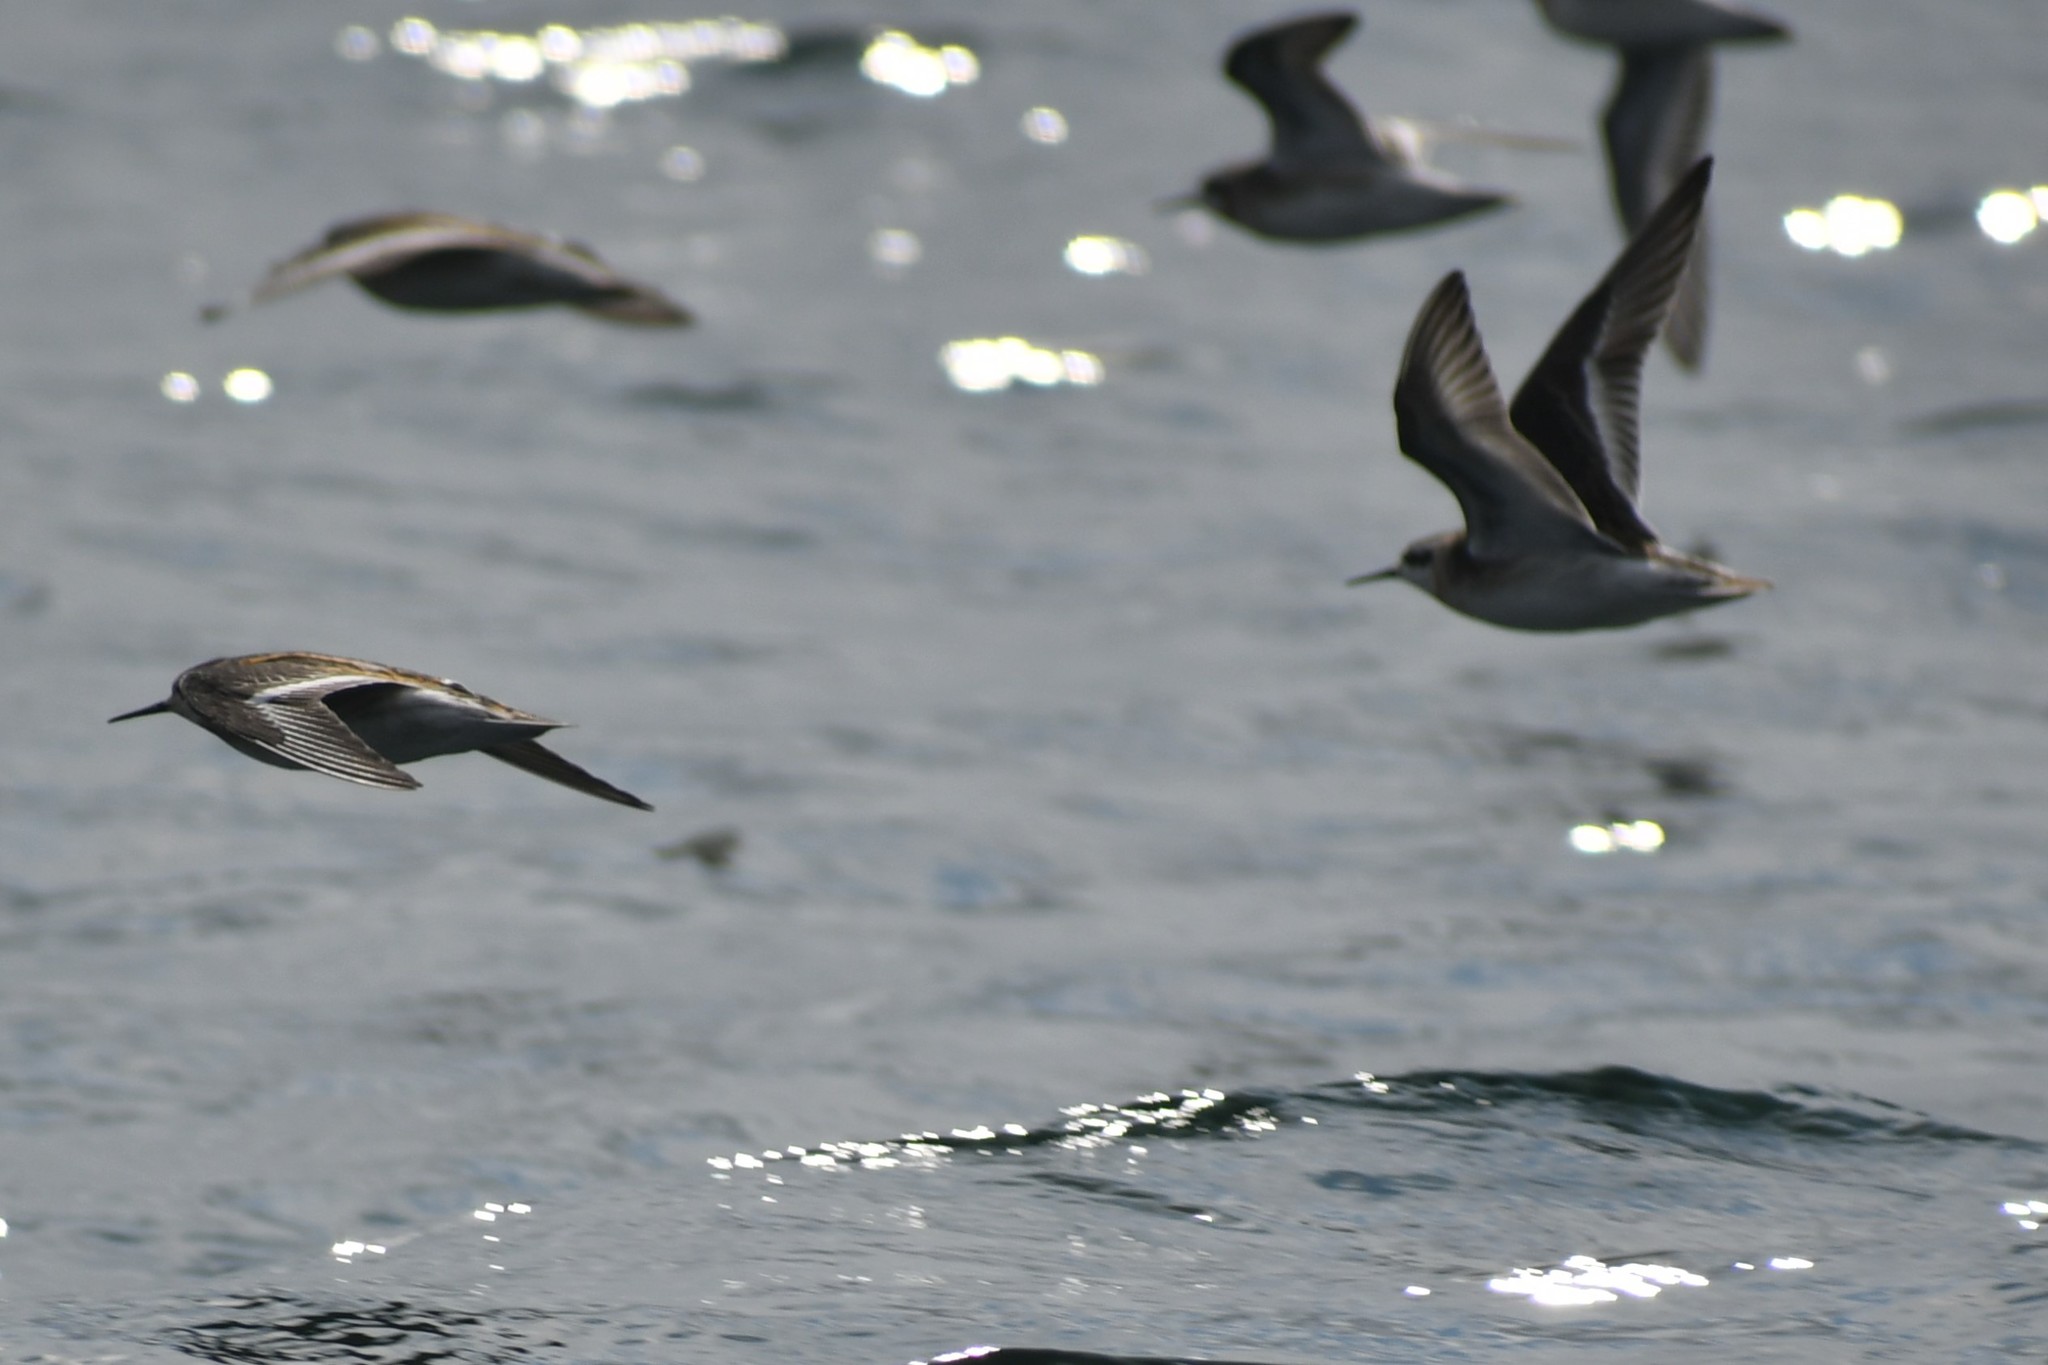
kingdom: Animalia
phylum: Chordata
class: Aves
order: Charadriiformes
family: Scolopacidae
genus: Phalaropus
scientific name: Phalaropus lobatus
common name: Red-necked phalarope
